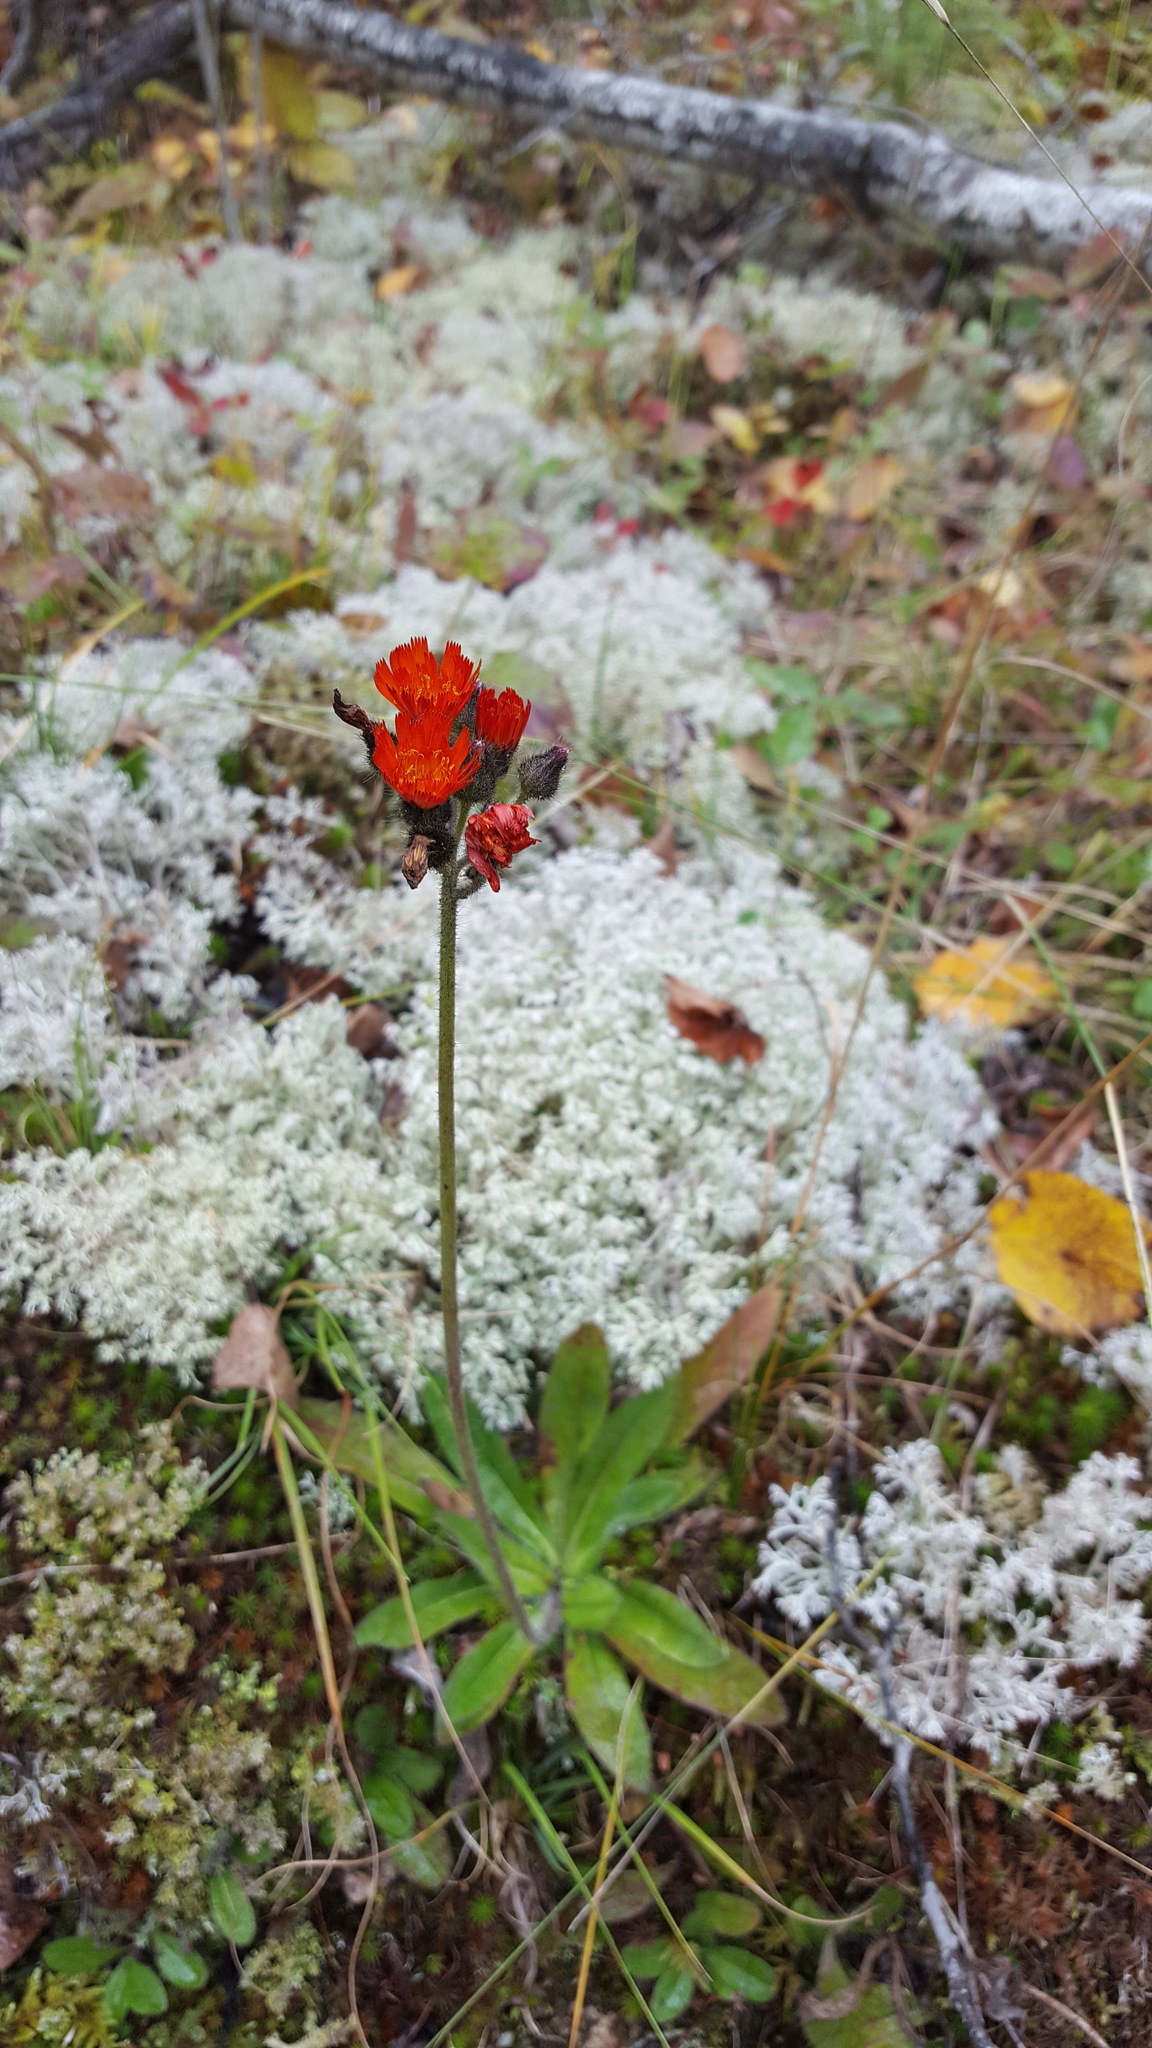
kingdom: Plantae
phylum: Tracheophyta
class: Magnoliopsida
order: Asterales
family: Asteraceae
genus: Pilosella
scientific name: Pilosella aurantiaca
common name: Fox-and-cubs
